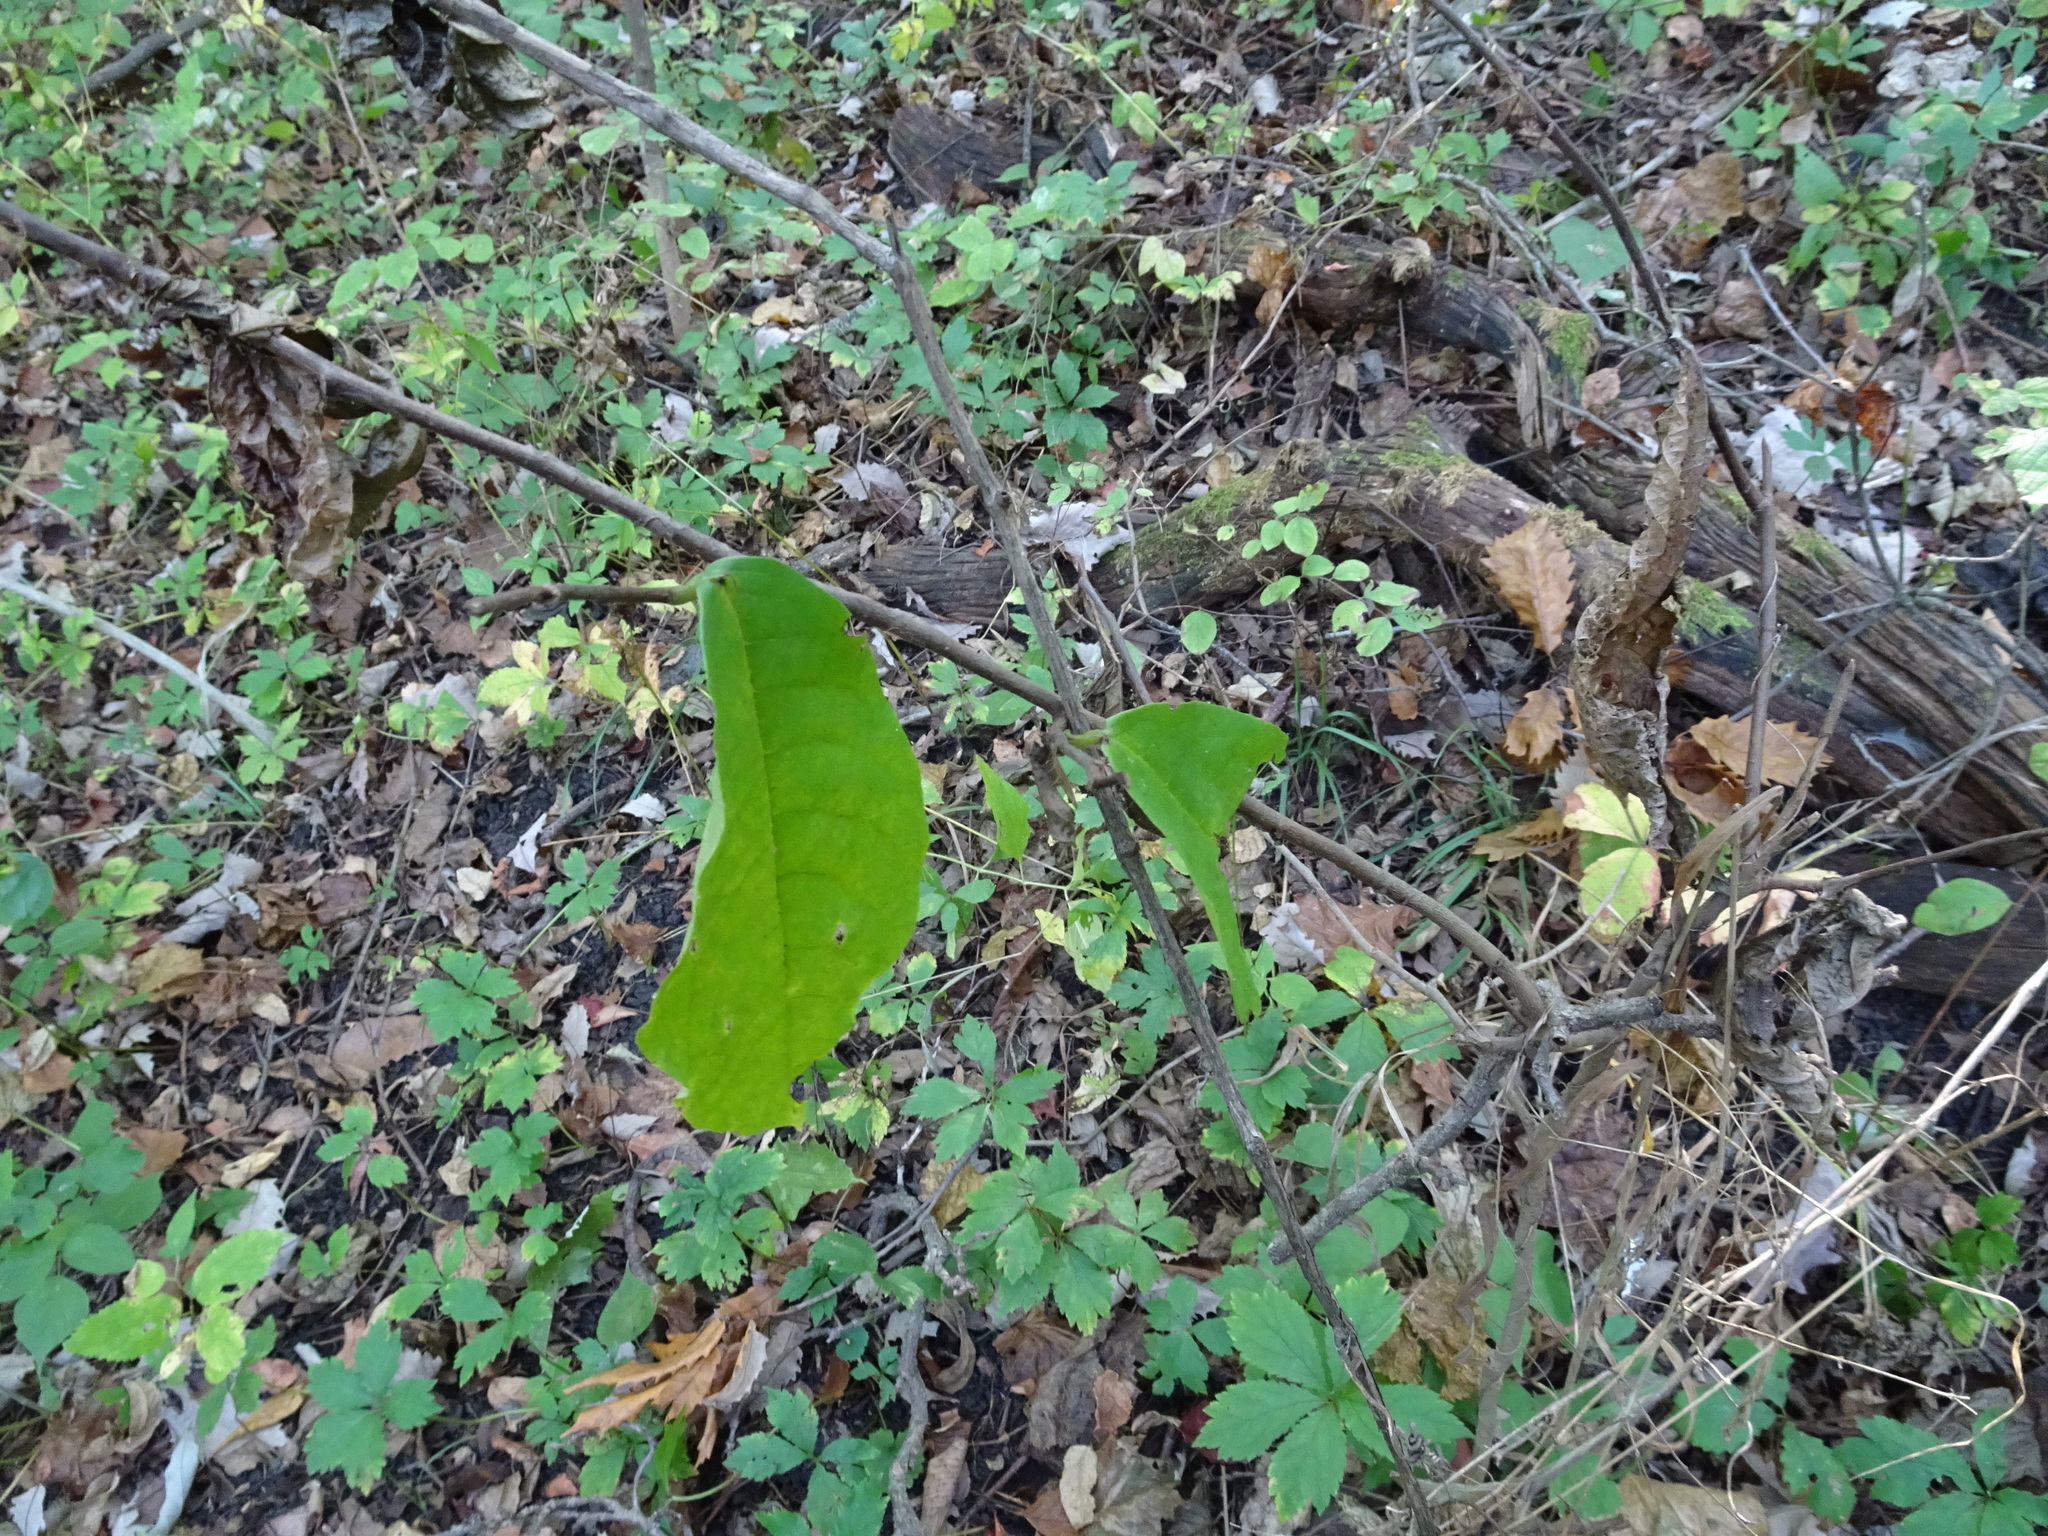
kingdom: Plantae
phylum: Tracheophyta
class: Magnoliopsida
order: Magnoliales
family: Annonaceae
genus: Asimina
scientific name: Asimina triloba
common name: Dog-banana
